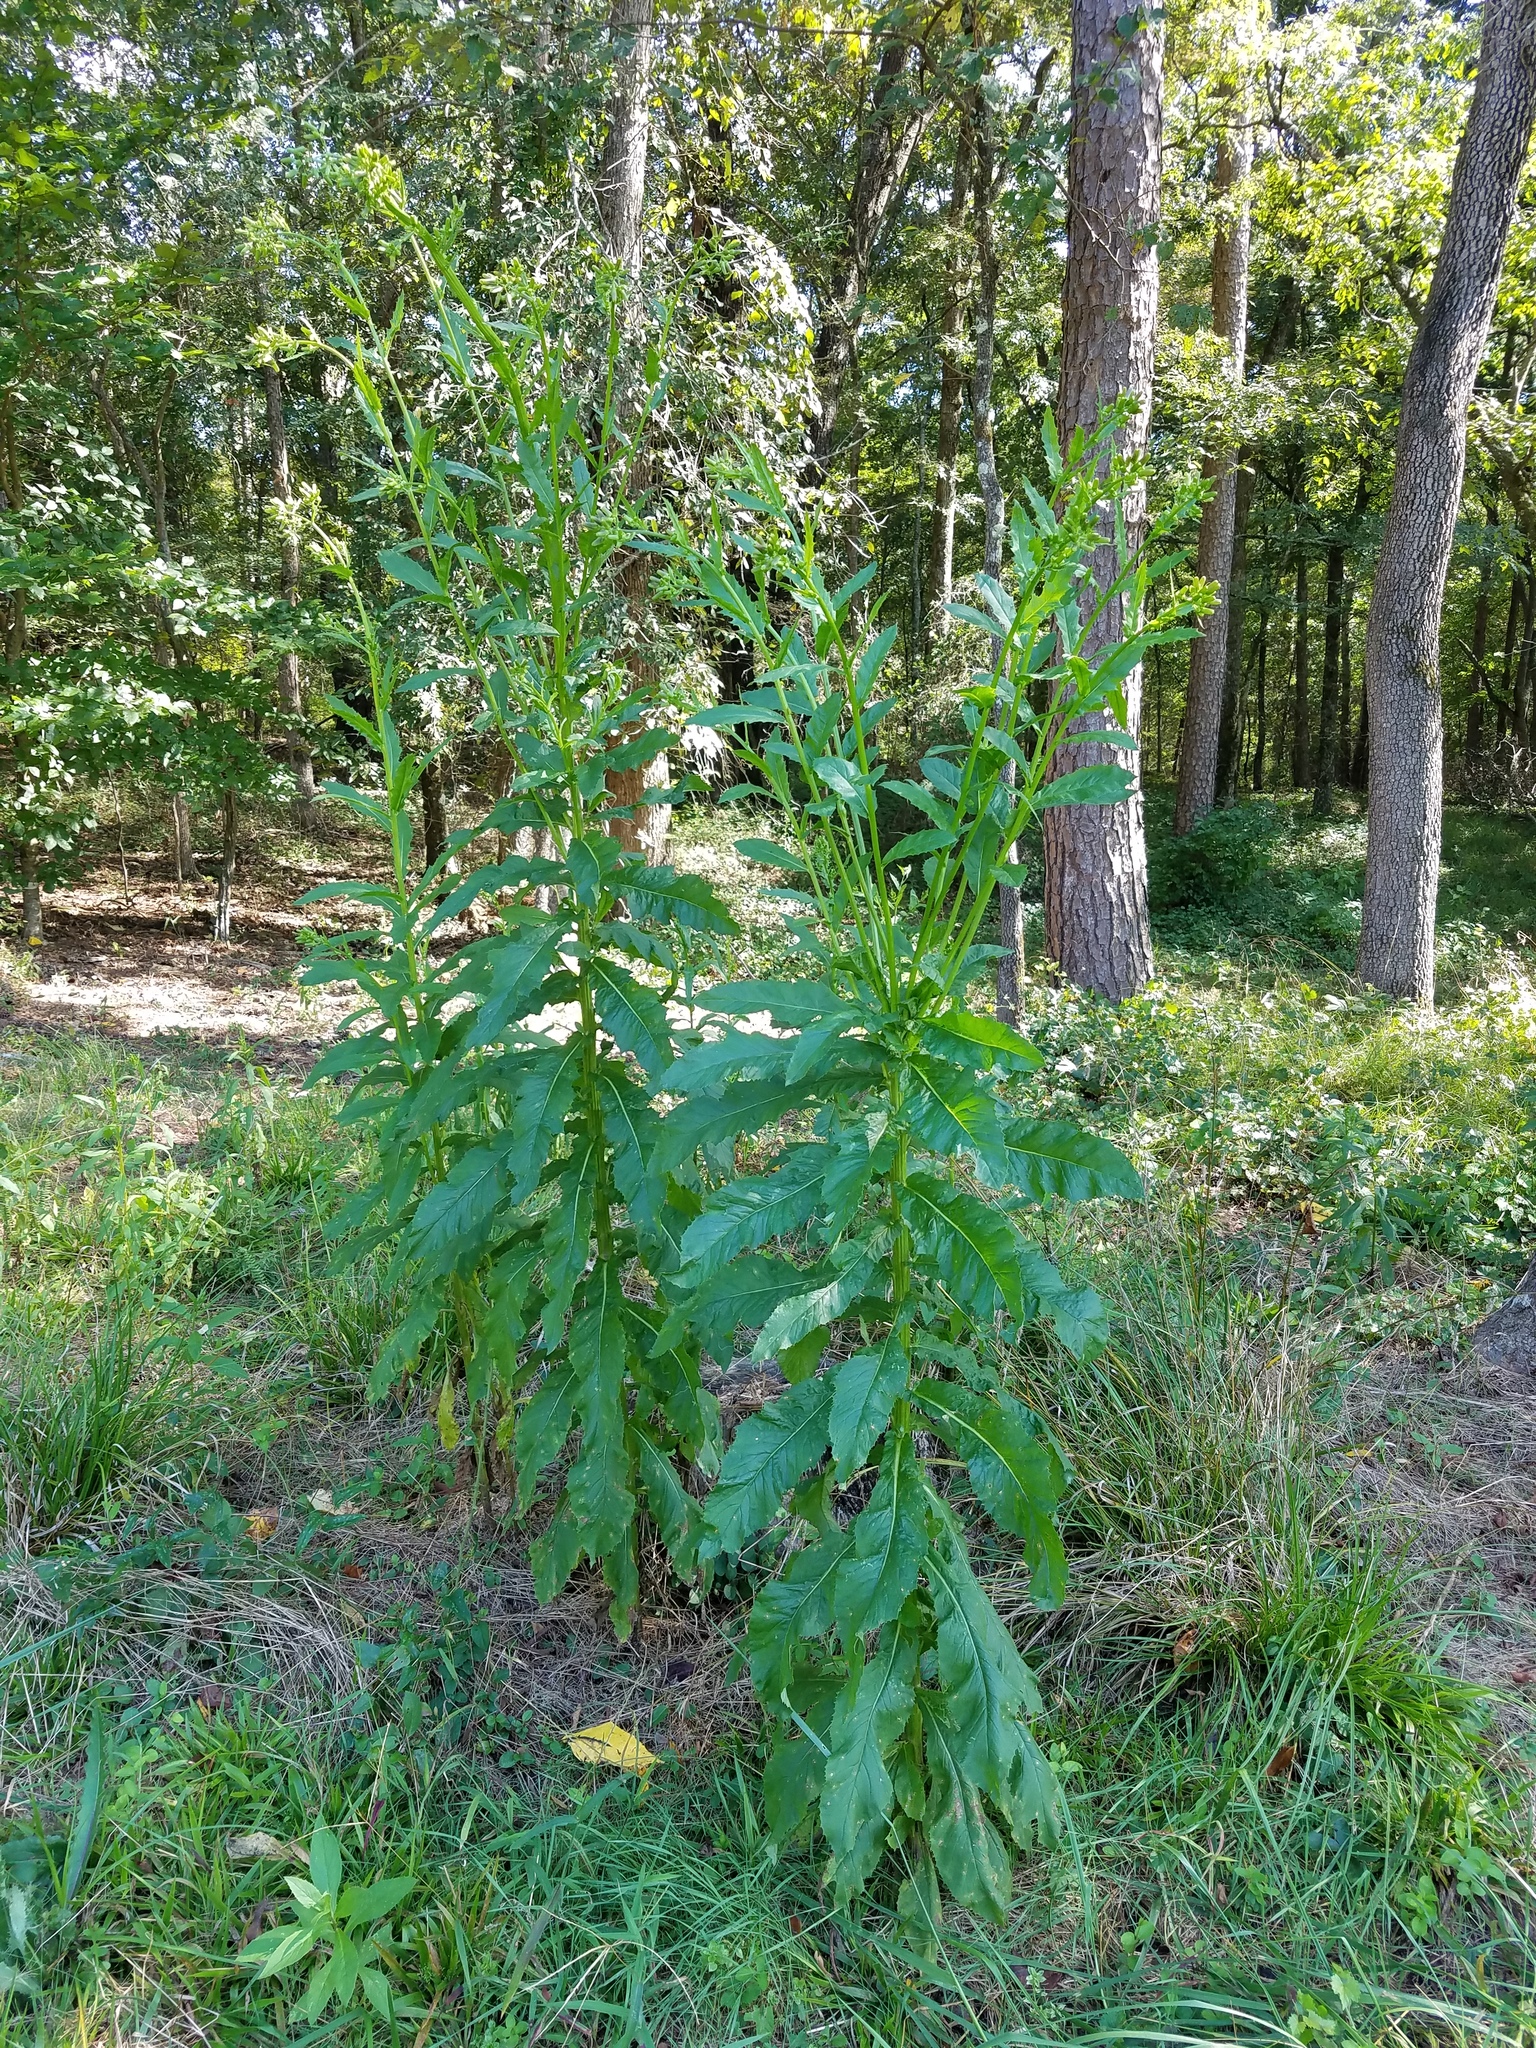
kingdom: Plantae
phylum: Tracheophyta
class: Magnoliopsida
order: Asterales
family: Asteraceae
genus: Erechtites
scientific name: Erechtites hieraciifolius
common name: American burnweed
